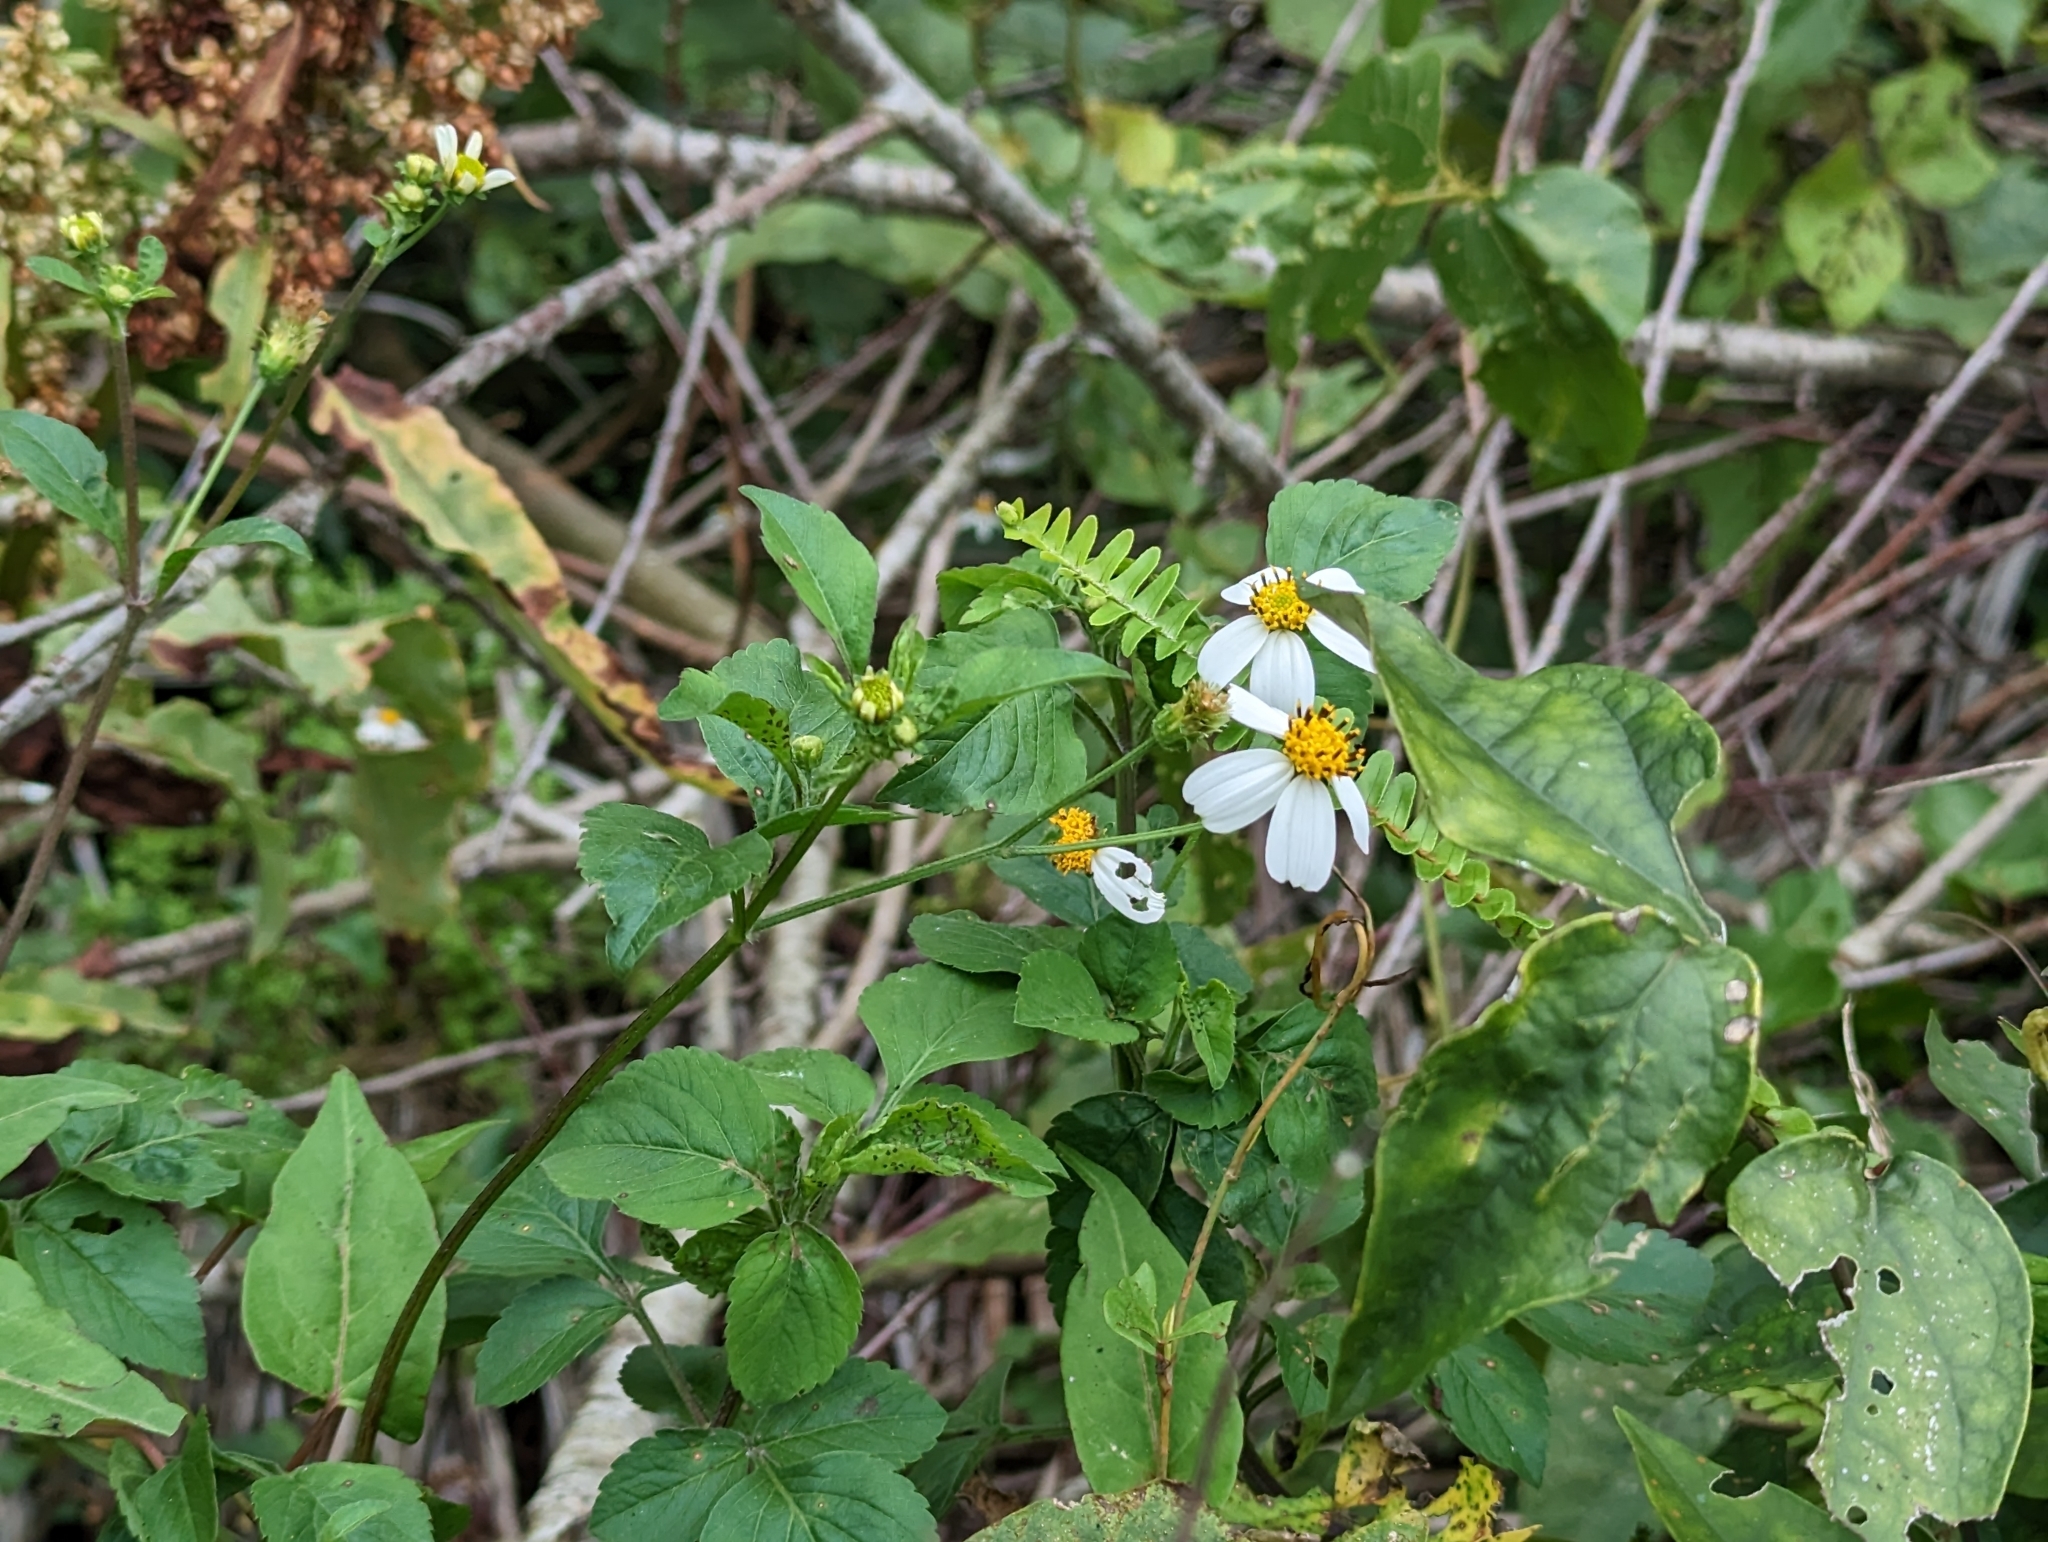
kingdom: Plantae
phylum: Tracheophyta
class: Magnoliopsida
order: Asterales
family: Asteraceae
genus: Bidens
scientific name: Bidens alba
